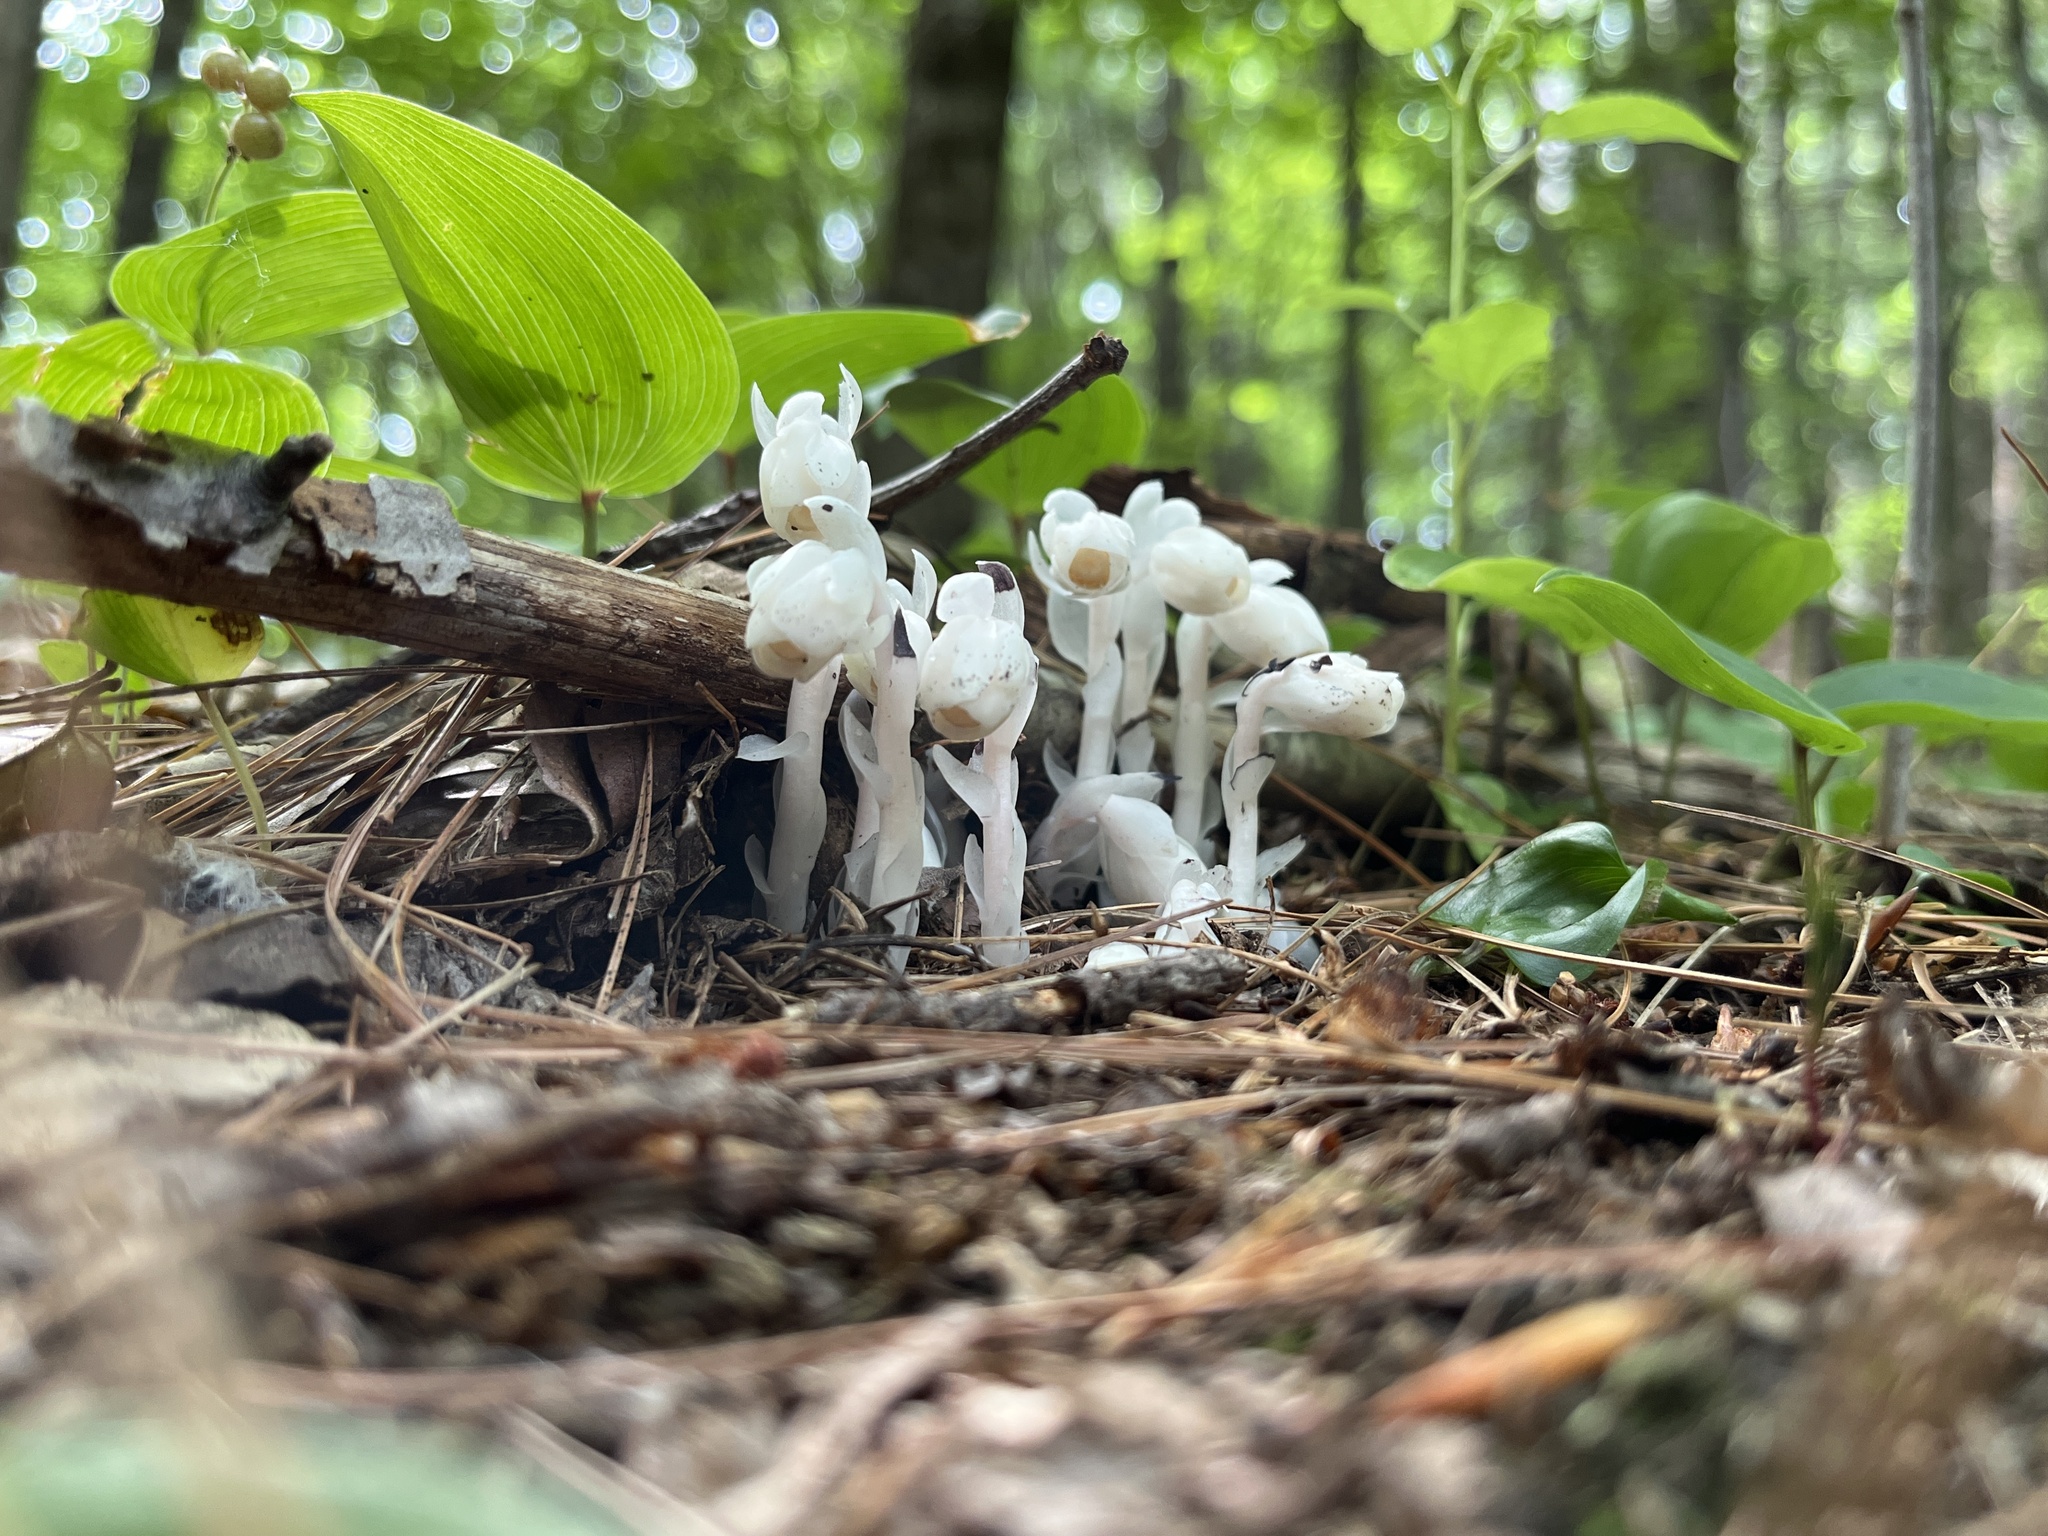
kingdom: Plantae
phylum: Tracheophyta
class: Magnoliopsida
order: Ericales
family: Ericaceae
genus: Monotropa
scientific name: Monotropa uniflora
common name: Convulsion root
